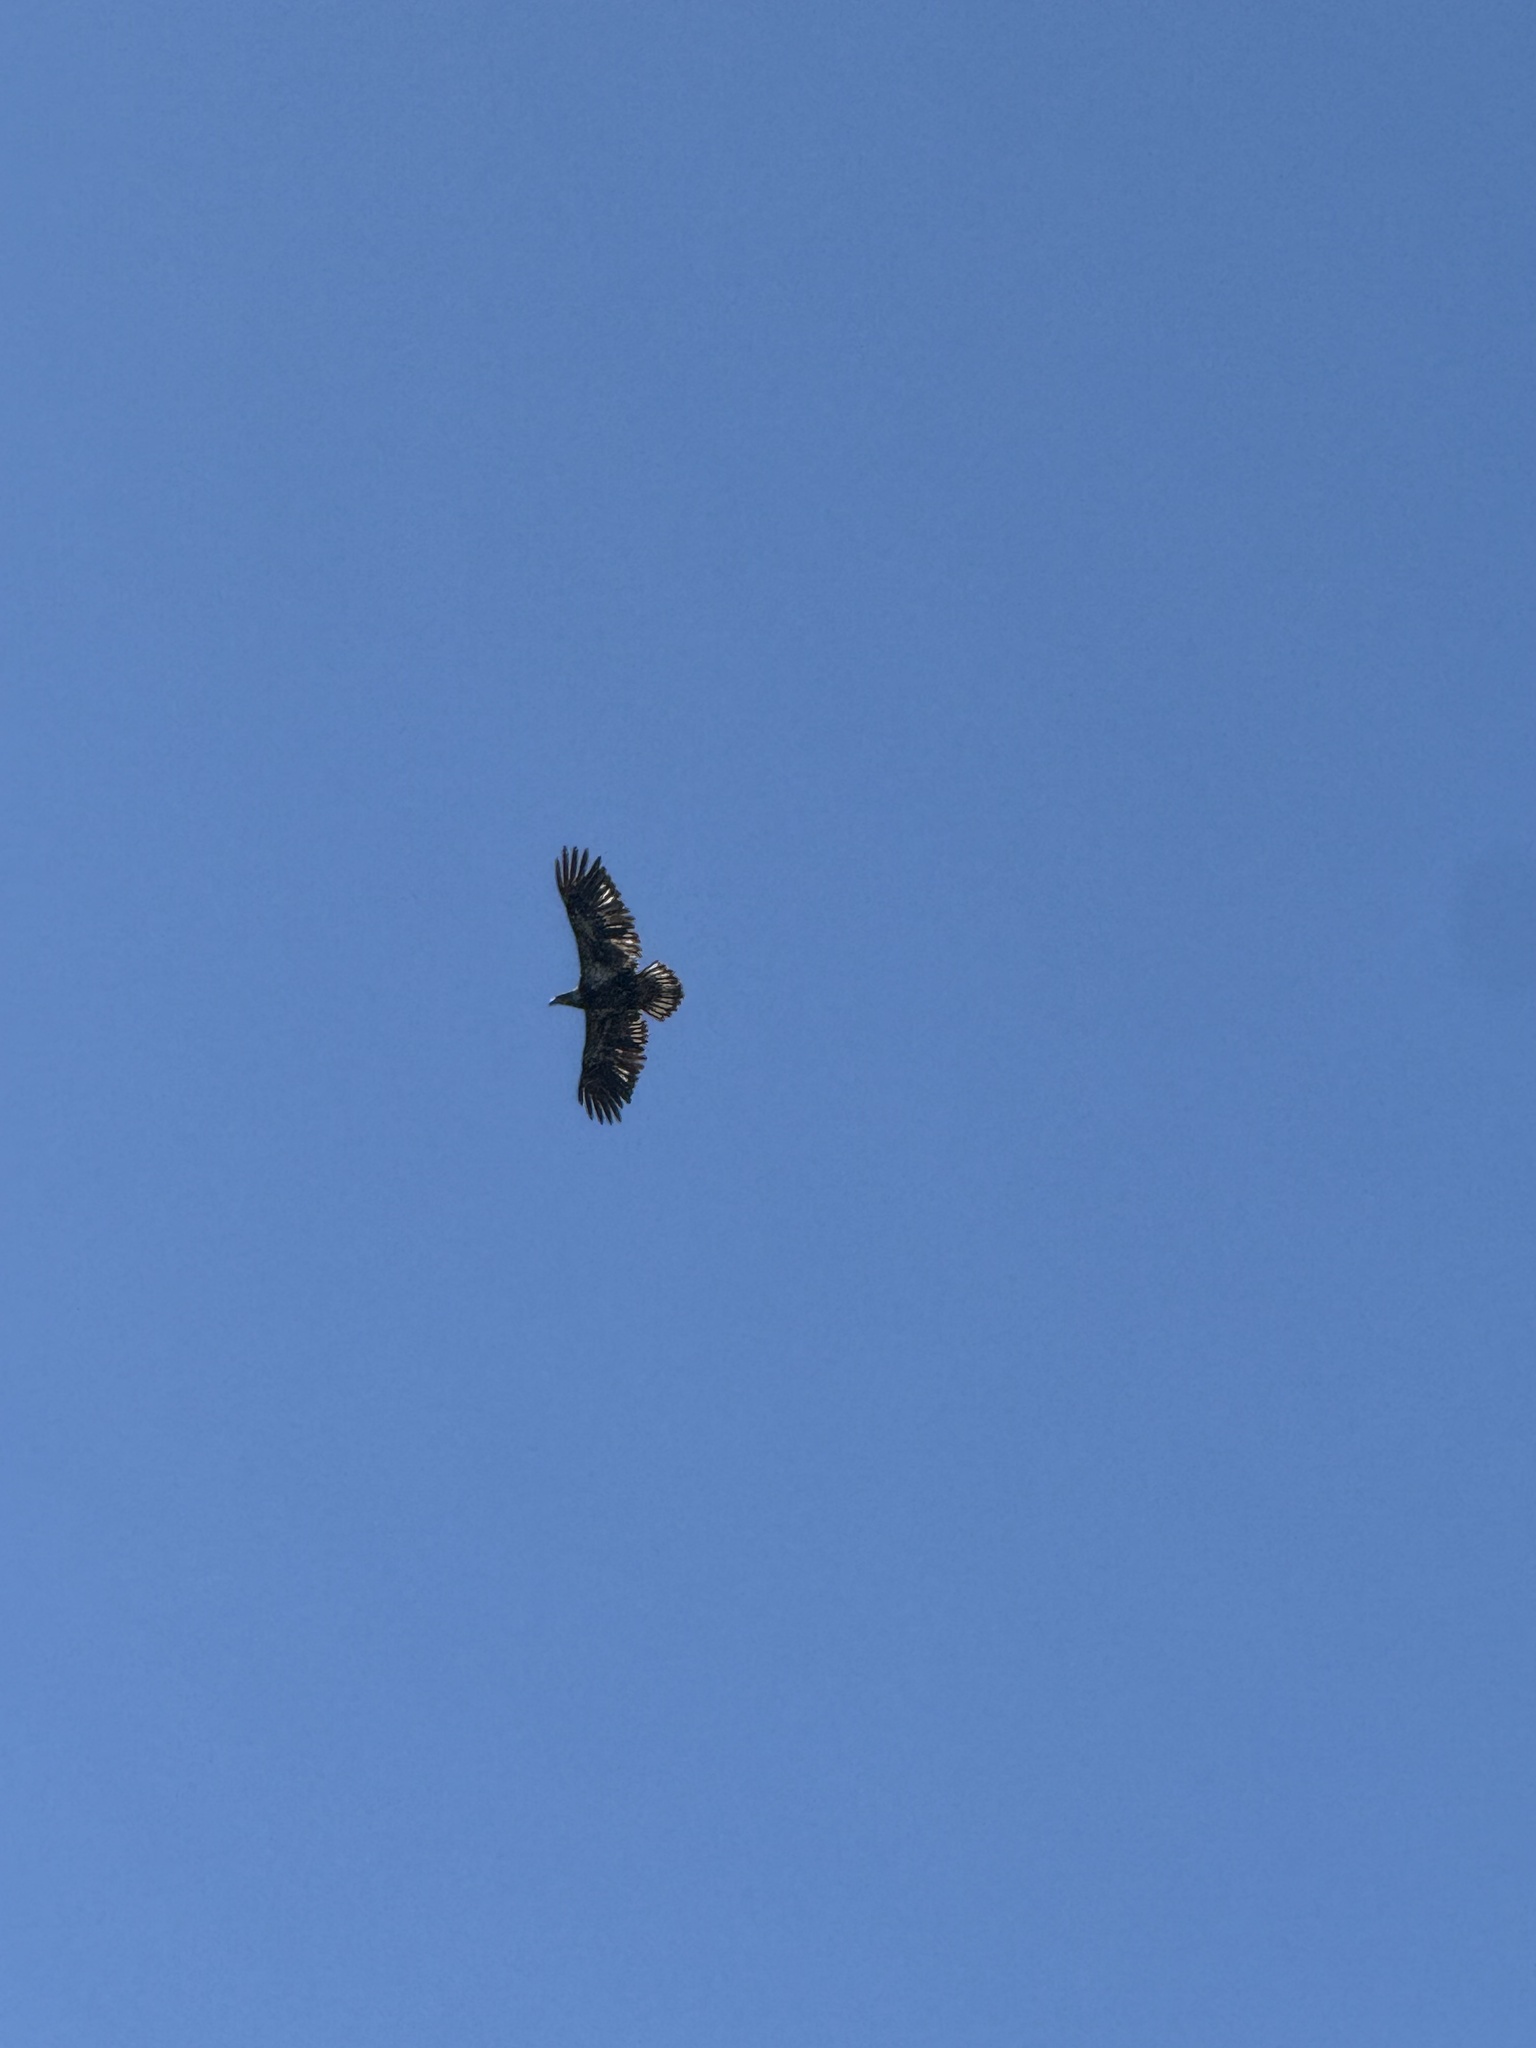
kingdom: Animalia
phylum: Chordata
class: Aves
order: Accipitriformes
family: Accipitridae
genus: Haliaeetus
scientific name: Haliaeetus leucocephalus
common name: Bald eagle
